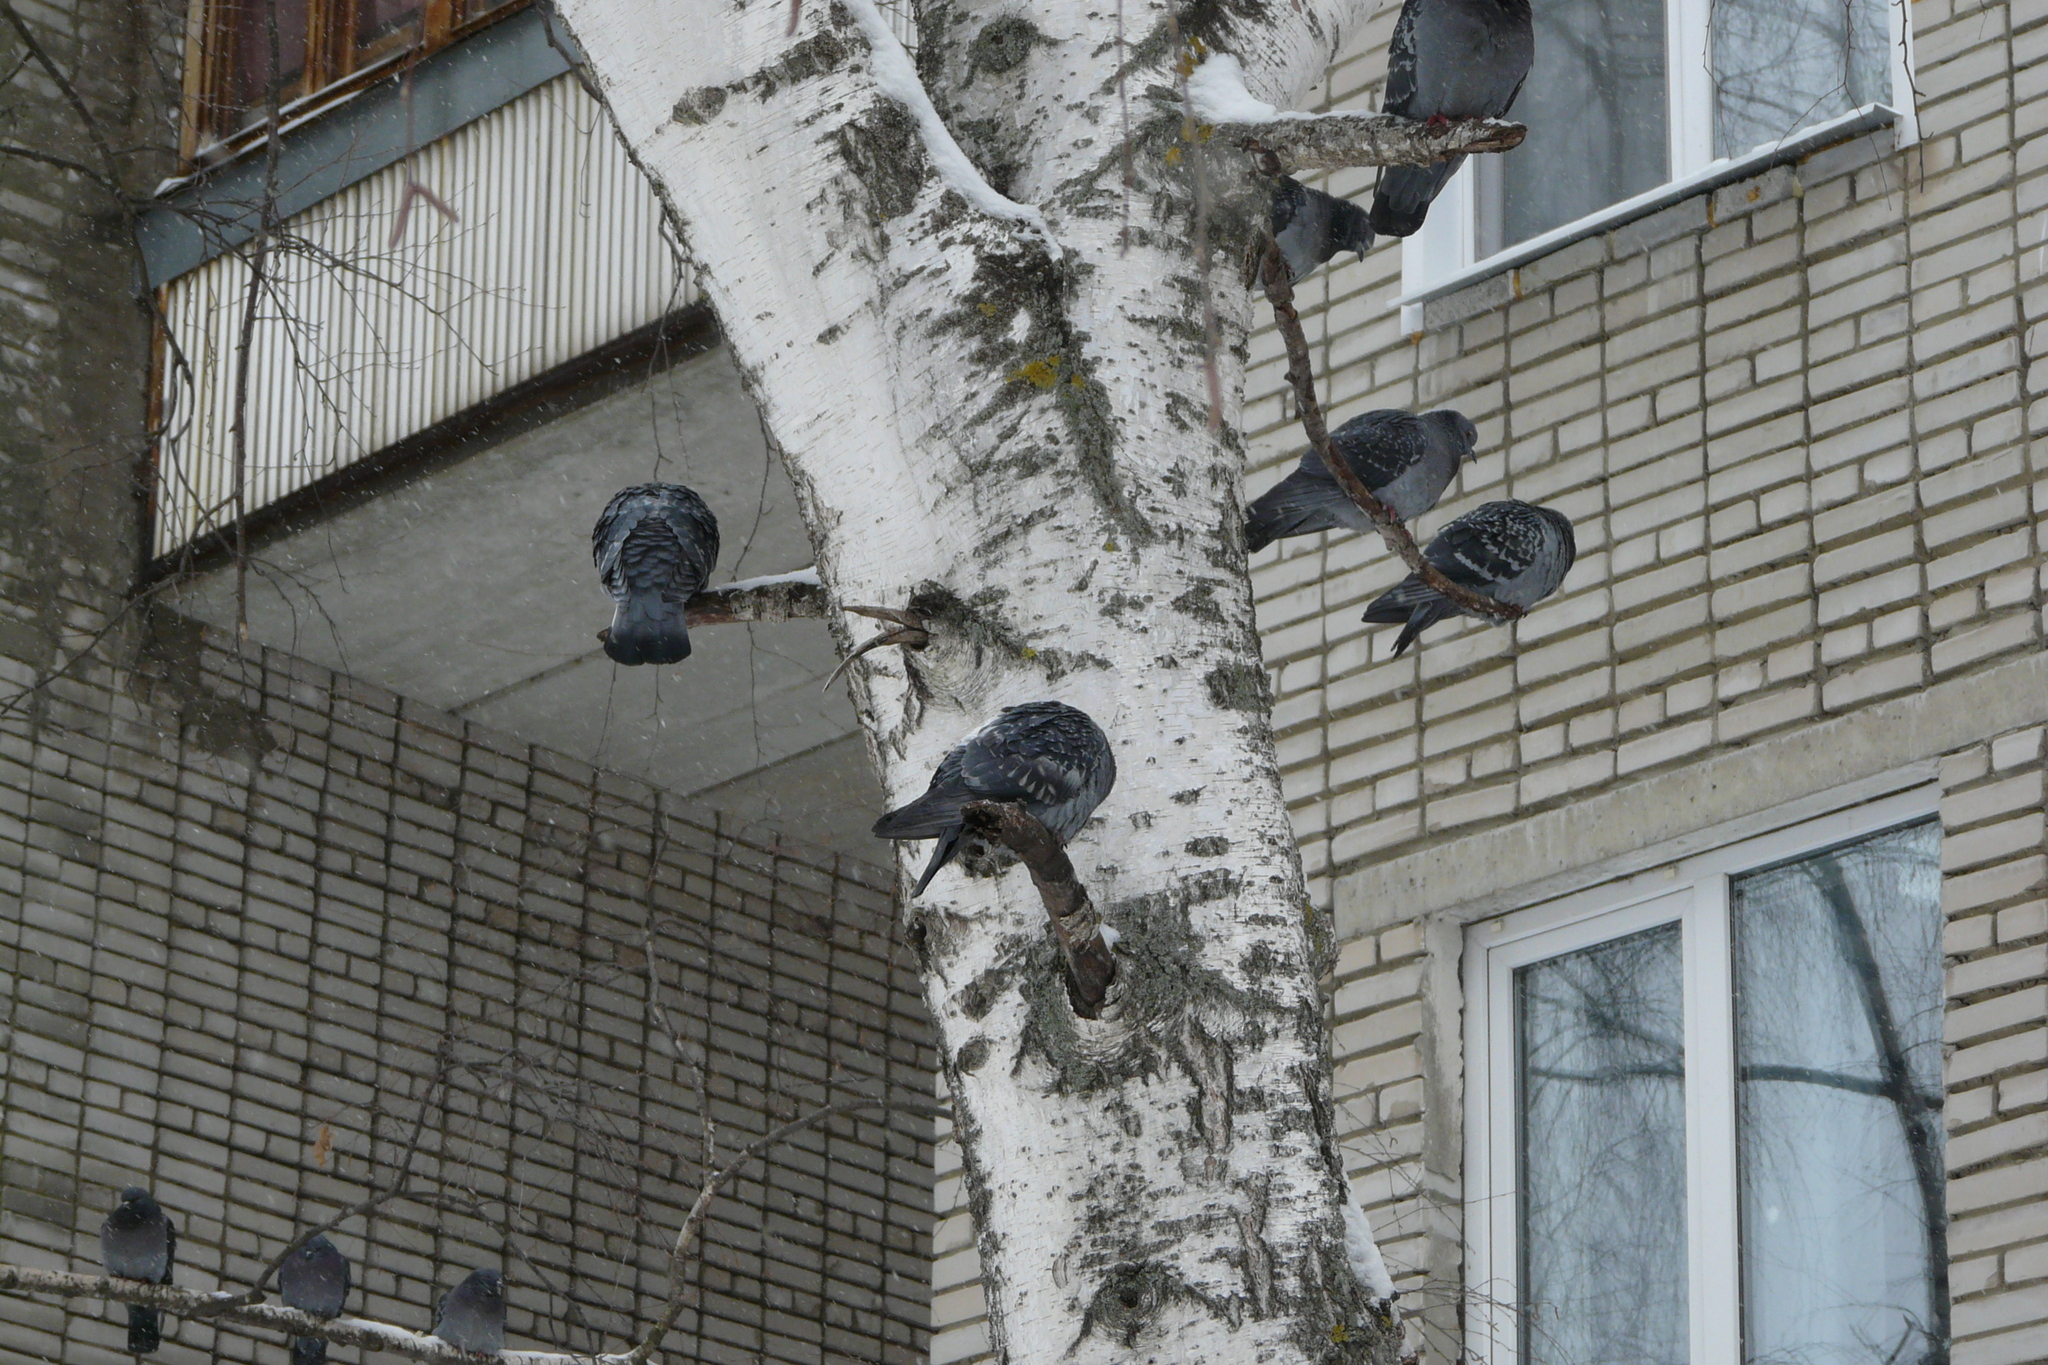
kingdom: Animalia
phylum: Chordata
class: Aves
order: Columbiformes
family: Columbidae
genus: Columba
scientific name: Columba livia
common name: Rock pigeon
